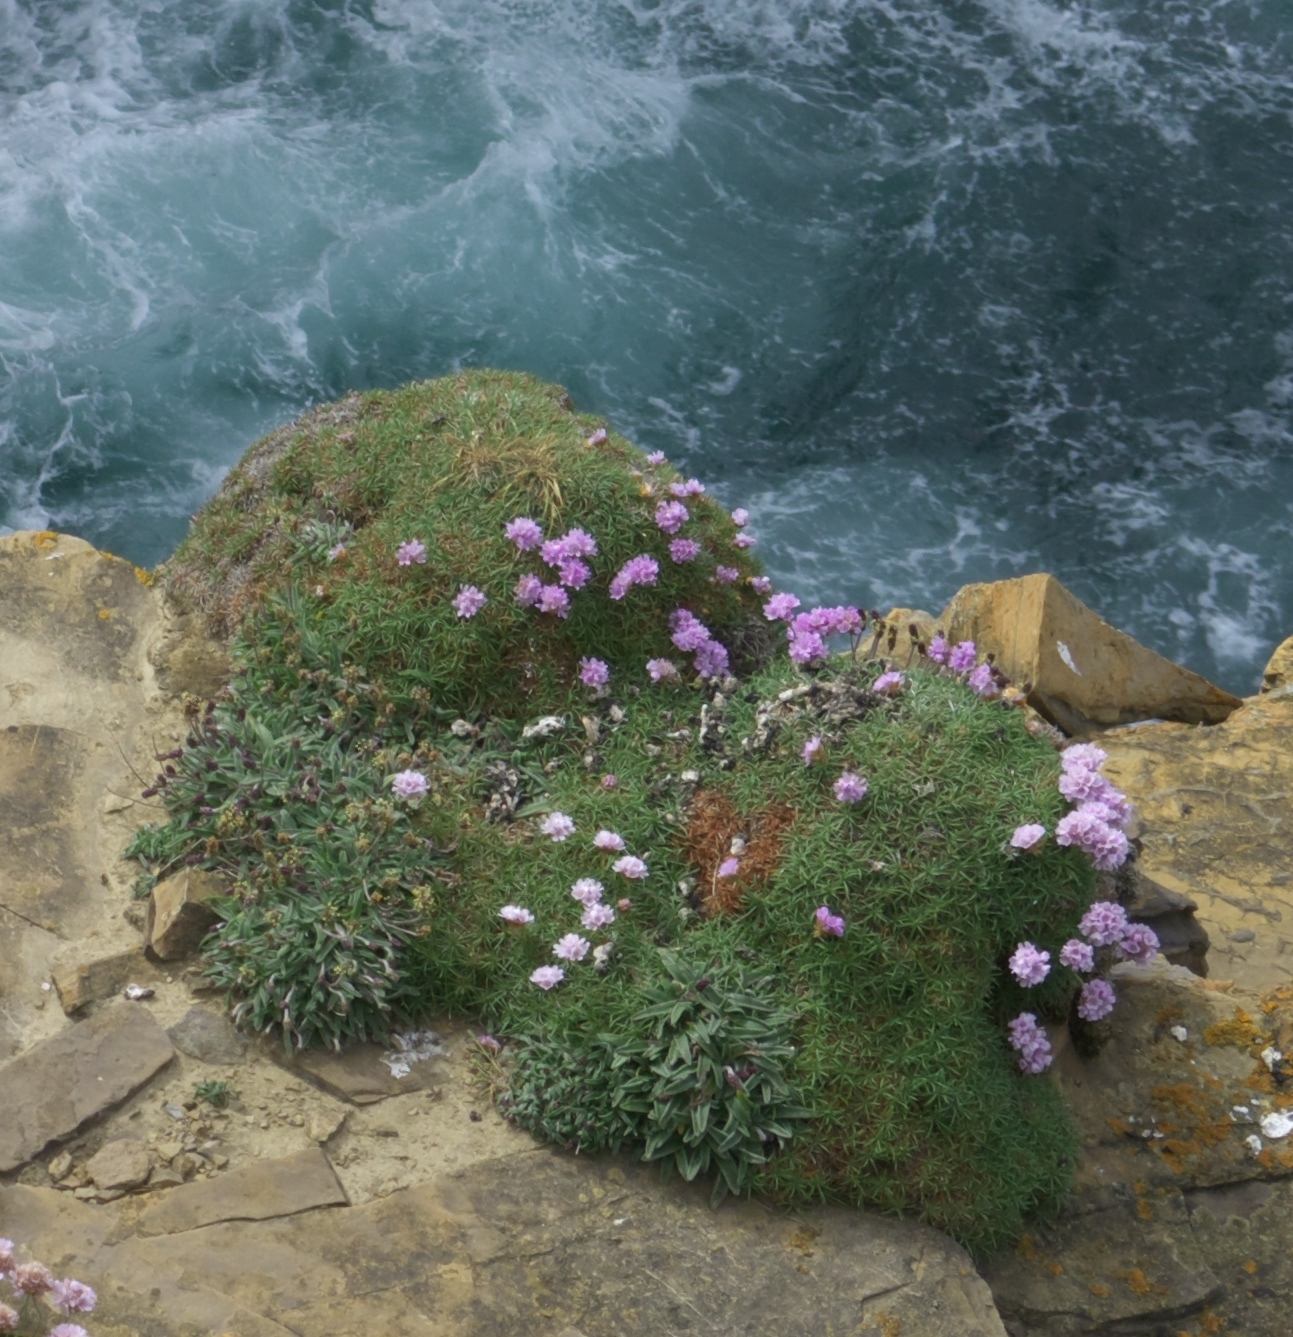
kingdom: Plantae
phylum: Tracheophyta
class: Magnoliopsida
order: Caryophyllales
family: Plumbaginaceae
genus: Armeria
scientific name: Armeria maritima
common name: Thrift
